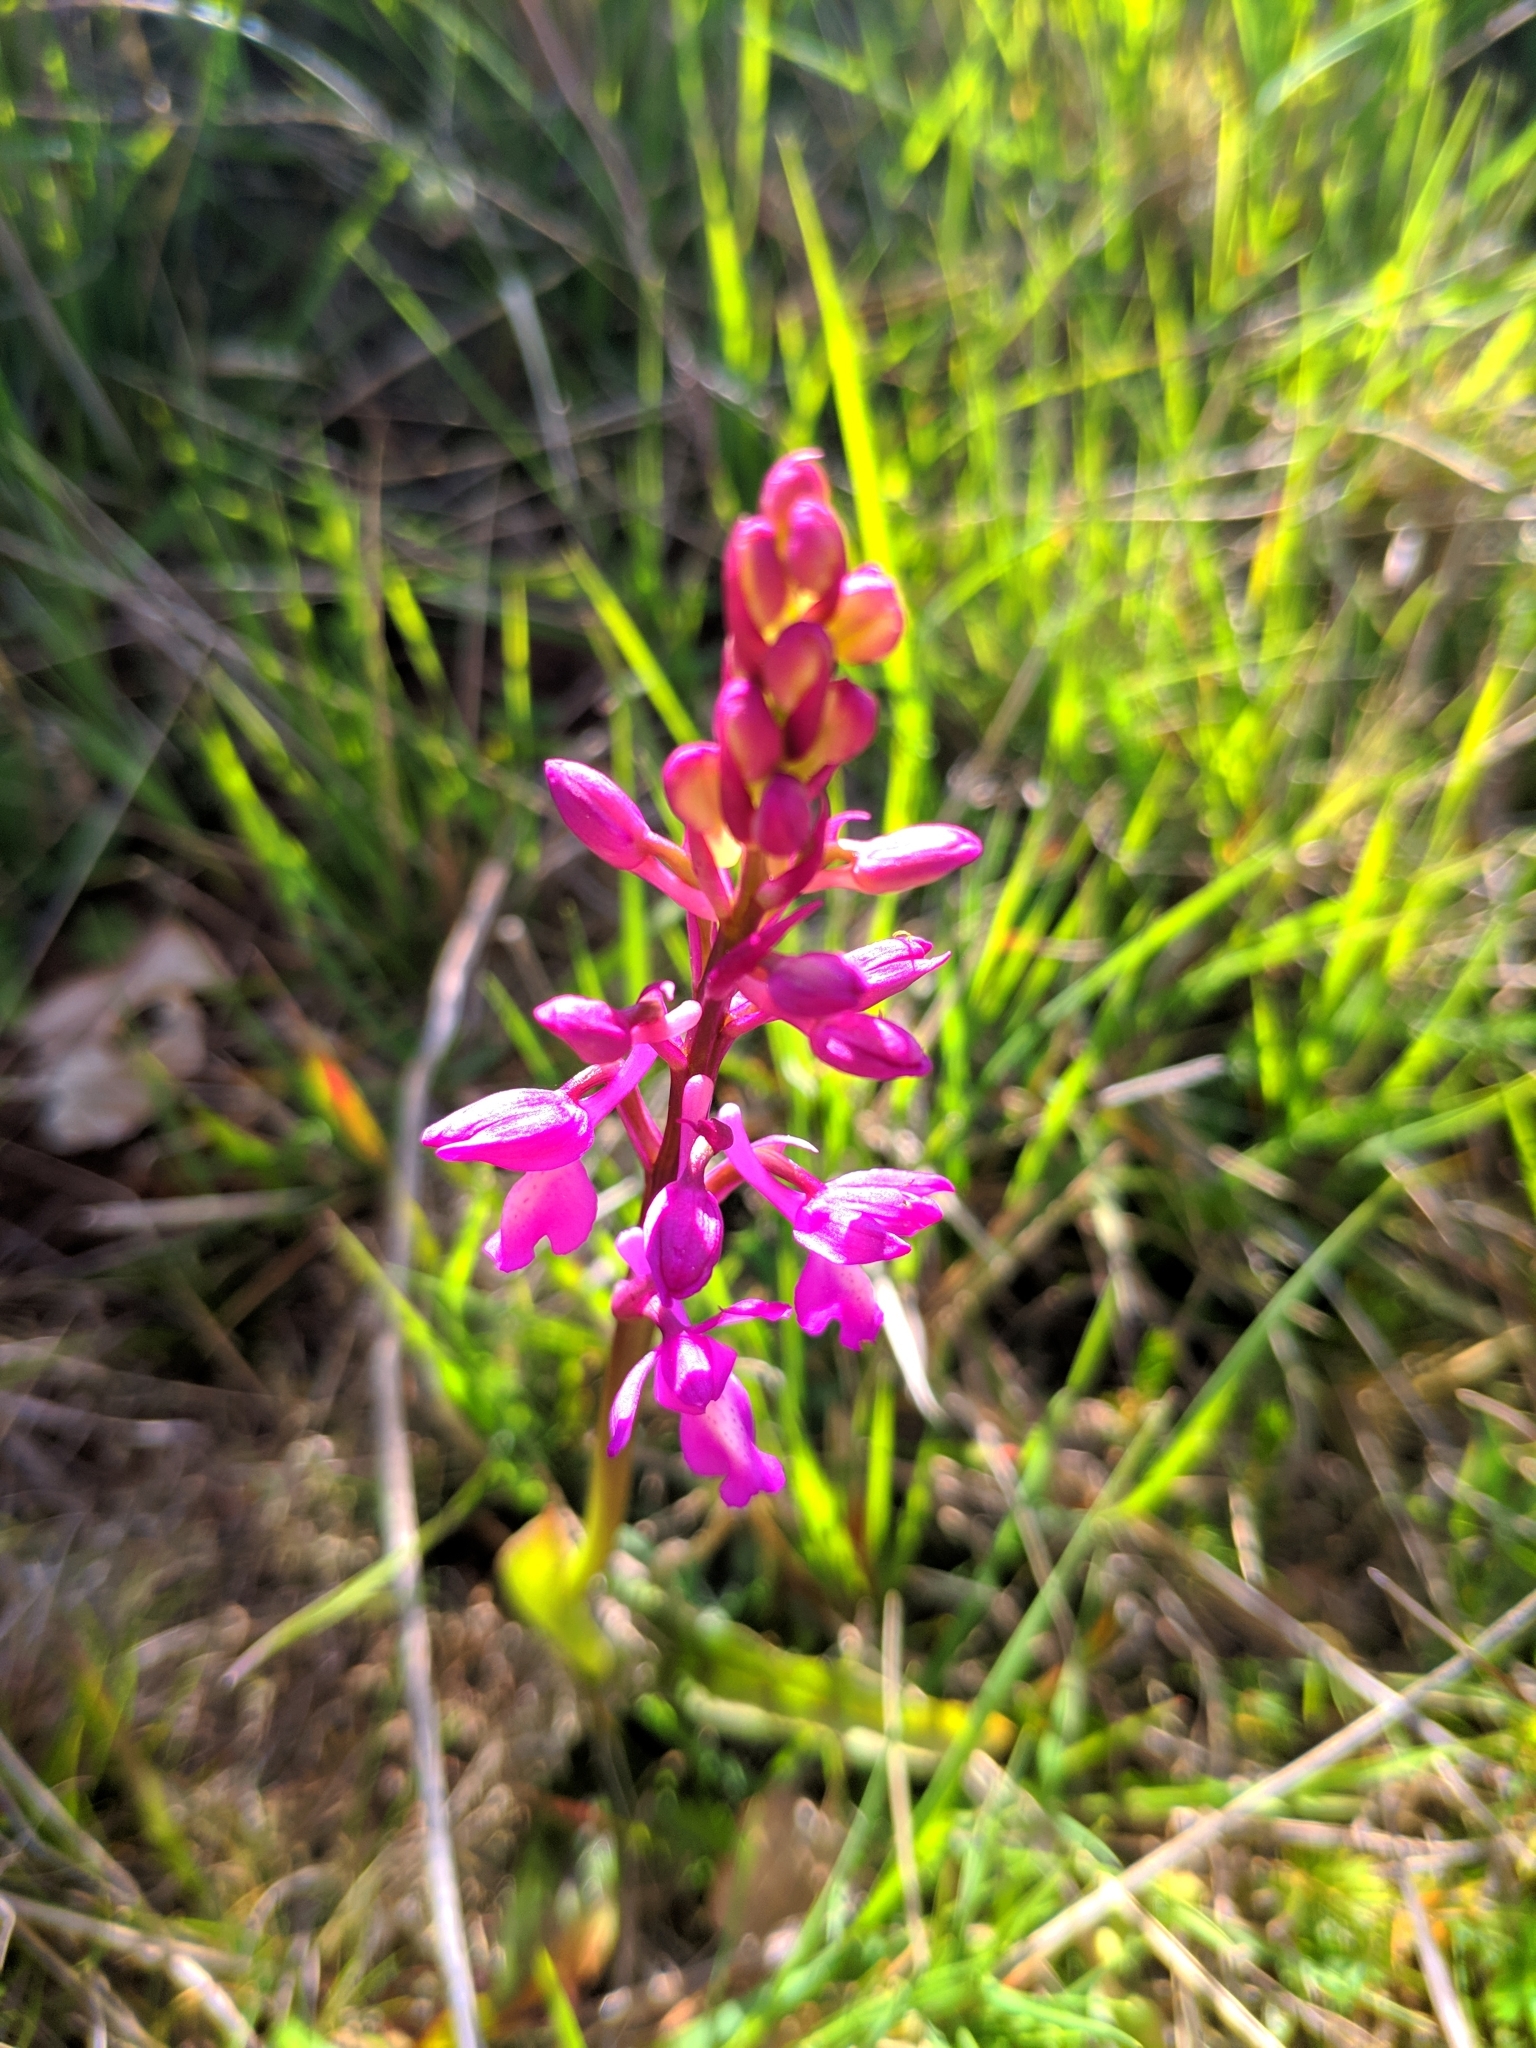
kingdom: Plantae
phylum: Tracheophyta
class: Liliopsida
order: Asparagales
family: Orchidaceae
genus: Orchis
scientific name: Orchis mascula
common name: Early-purple orchid
